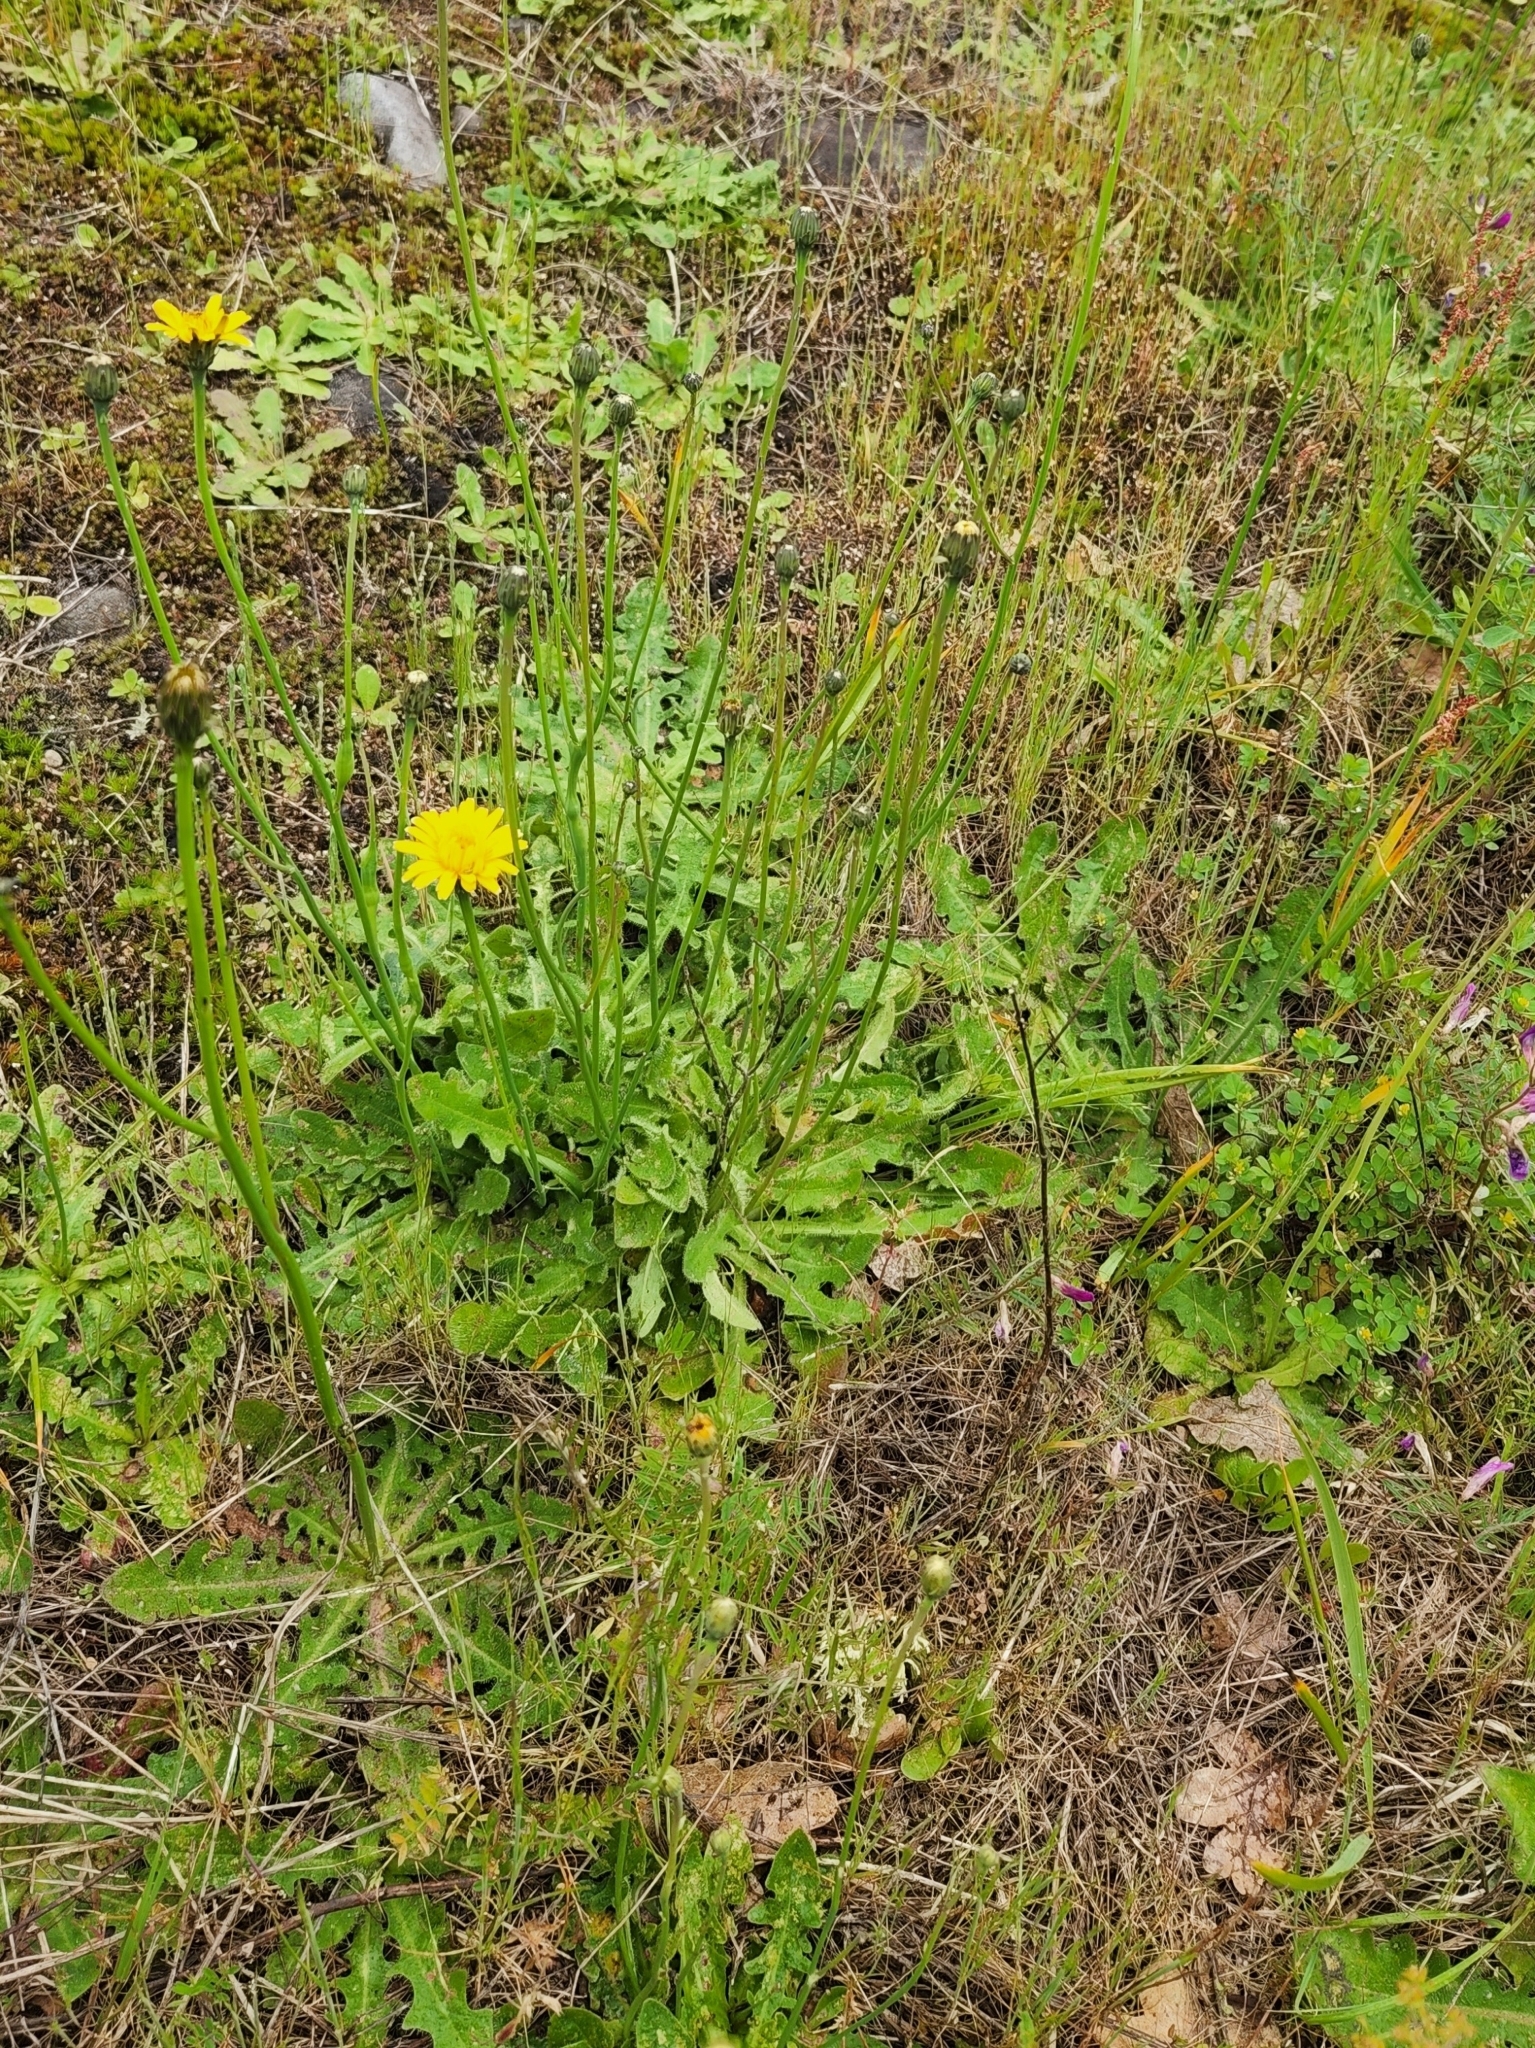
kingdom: Plantae
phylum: Tracheophyta
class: Magnoliopsida
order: Asterales
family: Asteraceae
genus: Hypochaeris
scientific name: Hypochaeris radicata
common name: Flatweed
